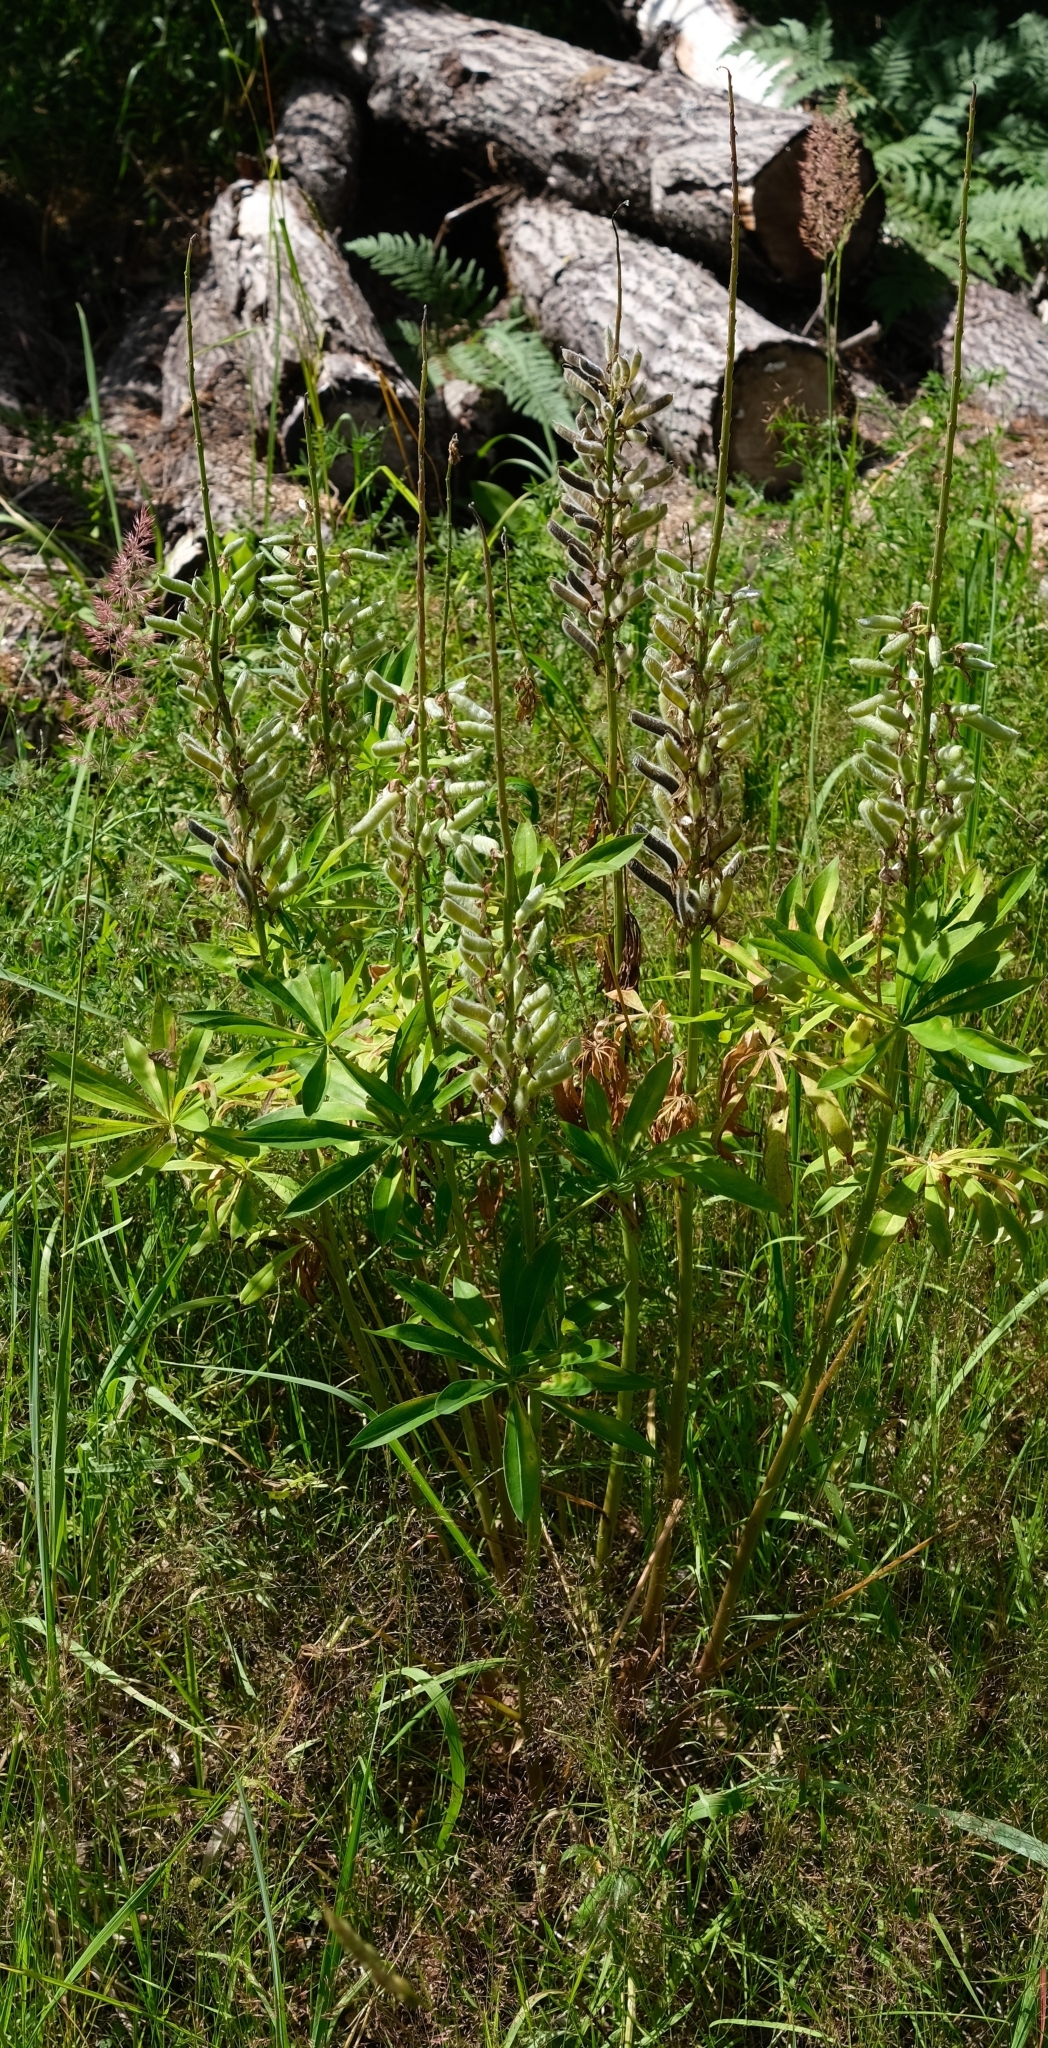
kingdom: Plantae
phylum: Tracheophyta
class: Magnoliopsida
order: Fabales
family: Fabaceae
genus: Lupinus
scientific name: Lupinus polyphyllus
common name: Garden lupin
